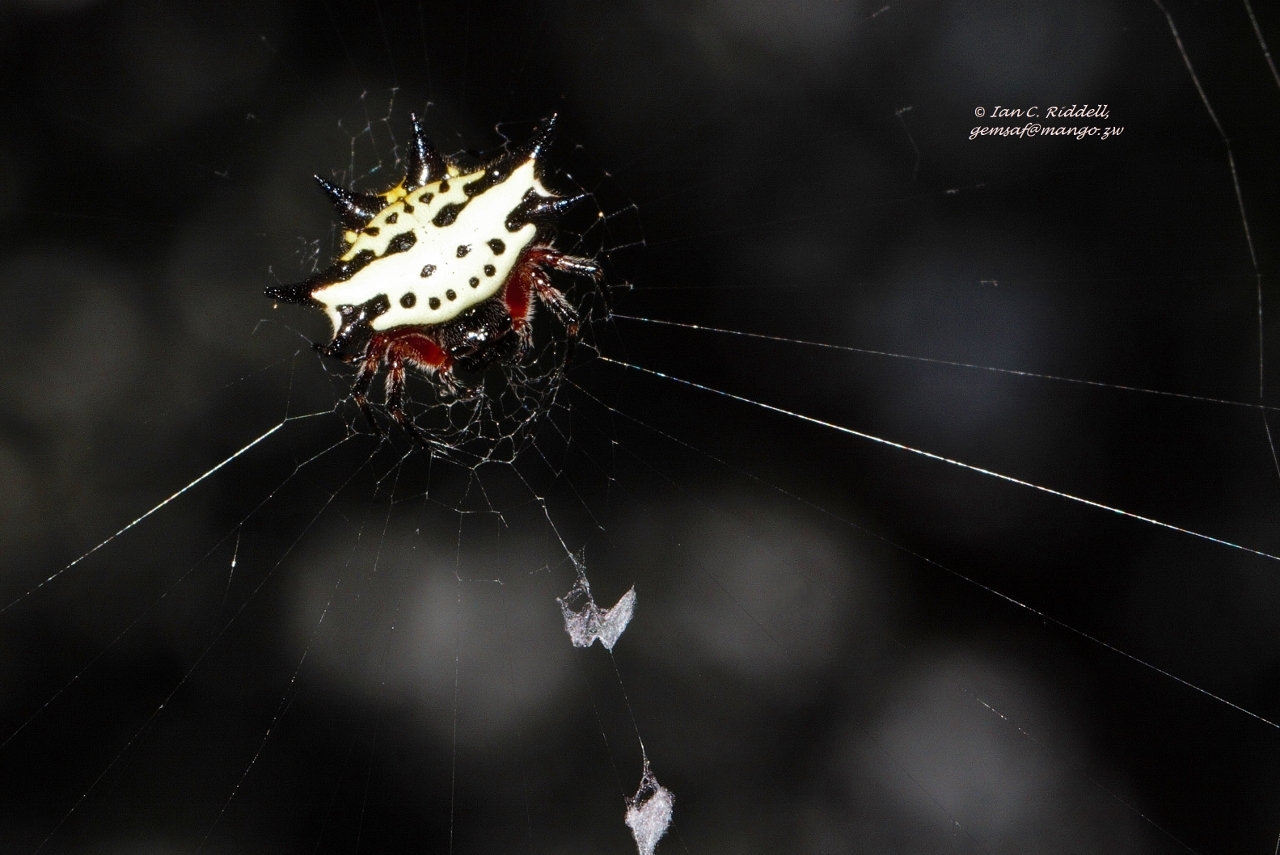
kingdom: Animalia
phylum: Arthropoda
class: Arachnida
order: Araneae
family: Araneidae
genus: Gasteracantha
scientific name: Gasteracantha sanguinolenta
